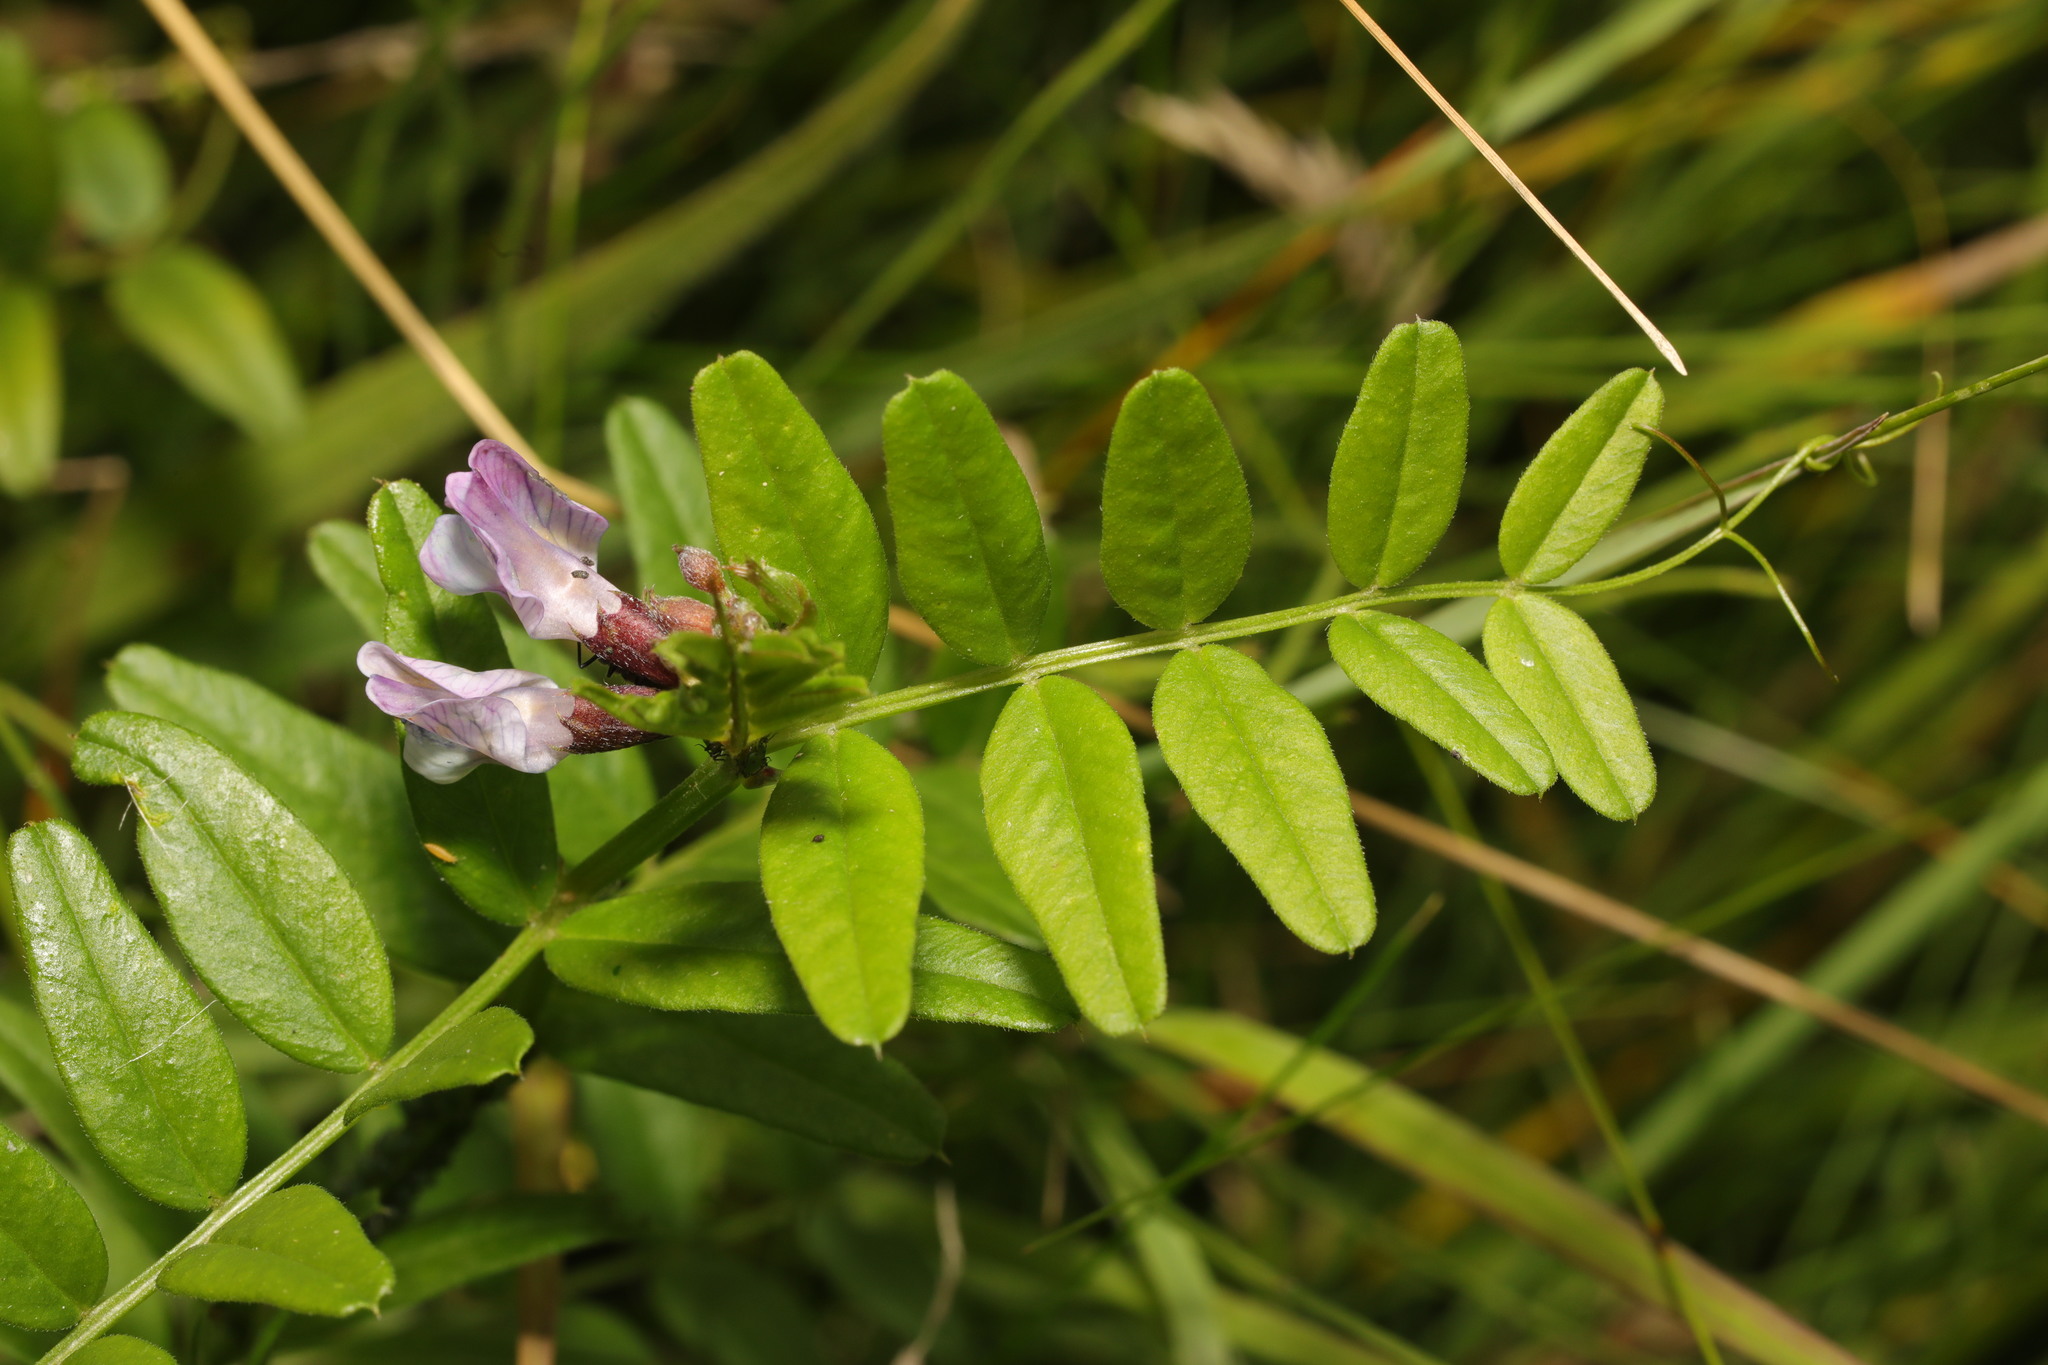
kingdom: Plantae
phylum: Tracheophyta
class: Magnoliopsida
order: Fabales
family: Fabaceae
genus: Vicia
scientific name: Vicia sepium
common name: Bush vetch
